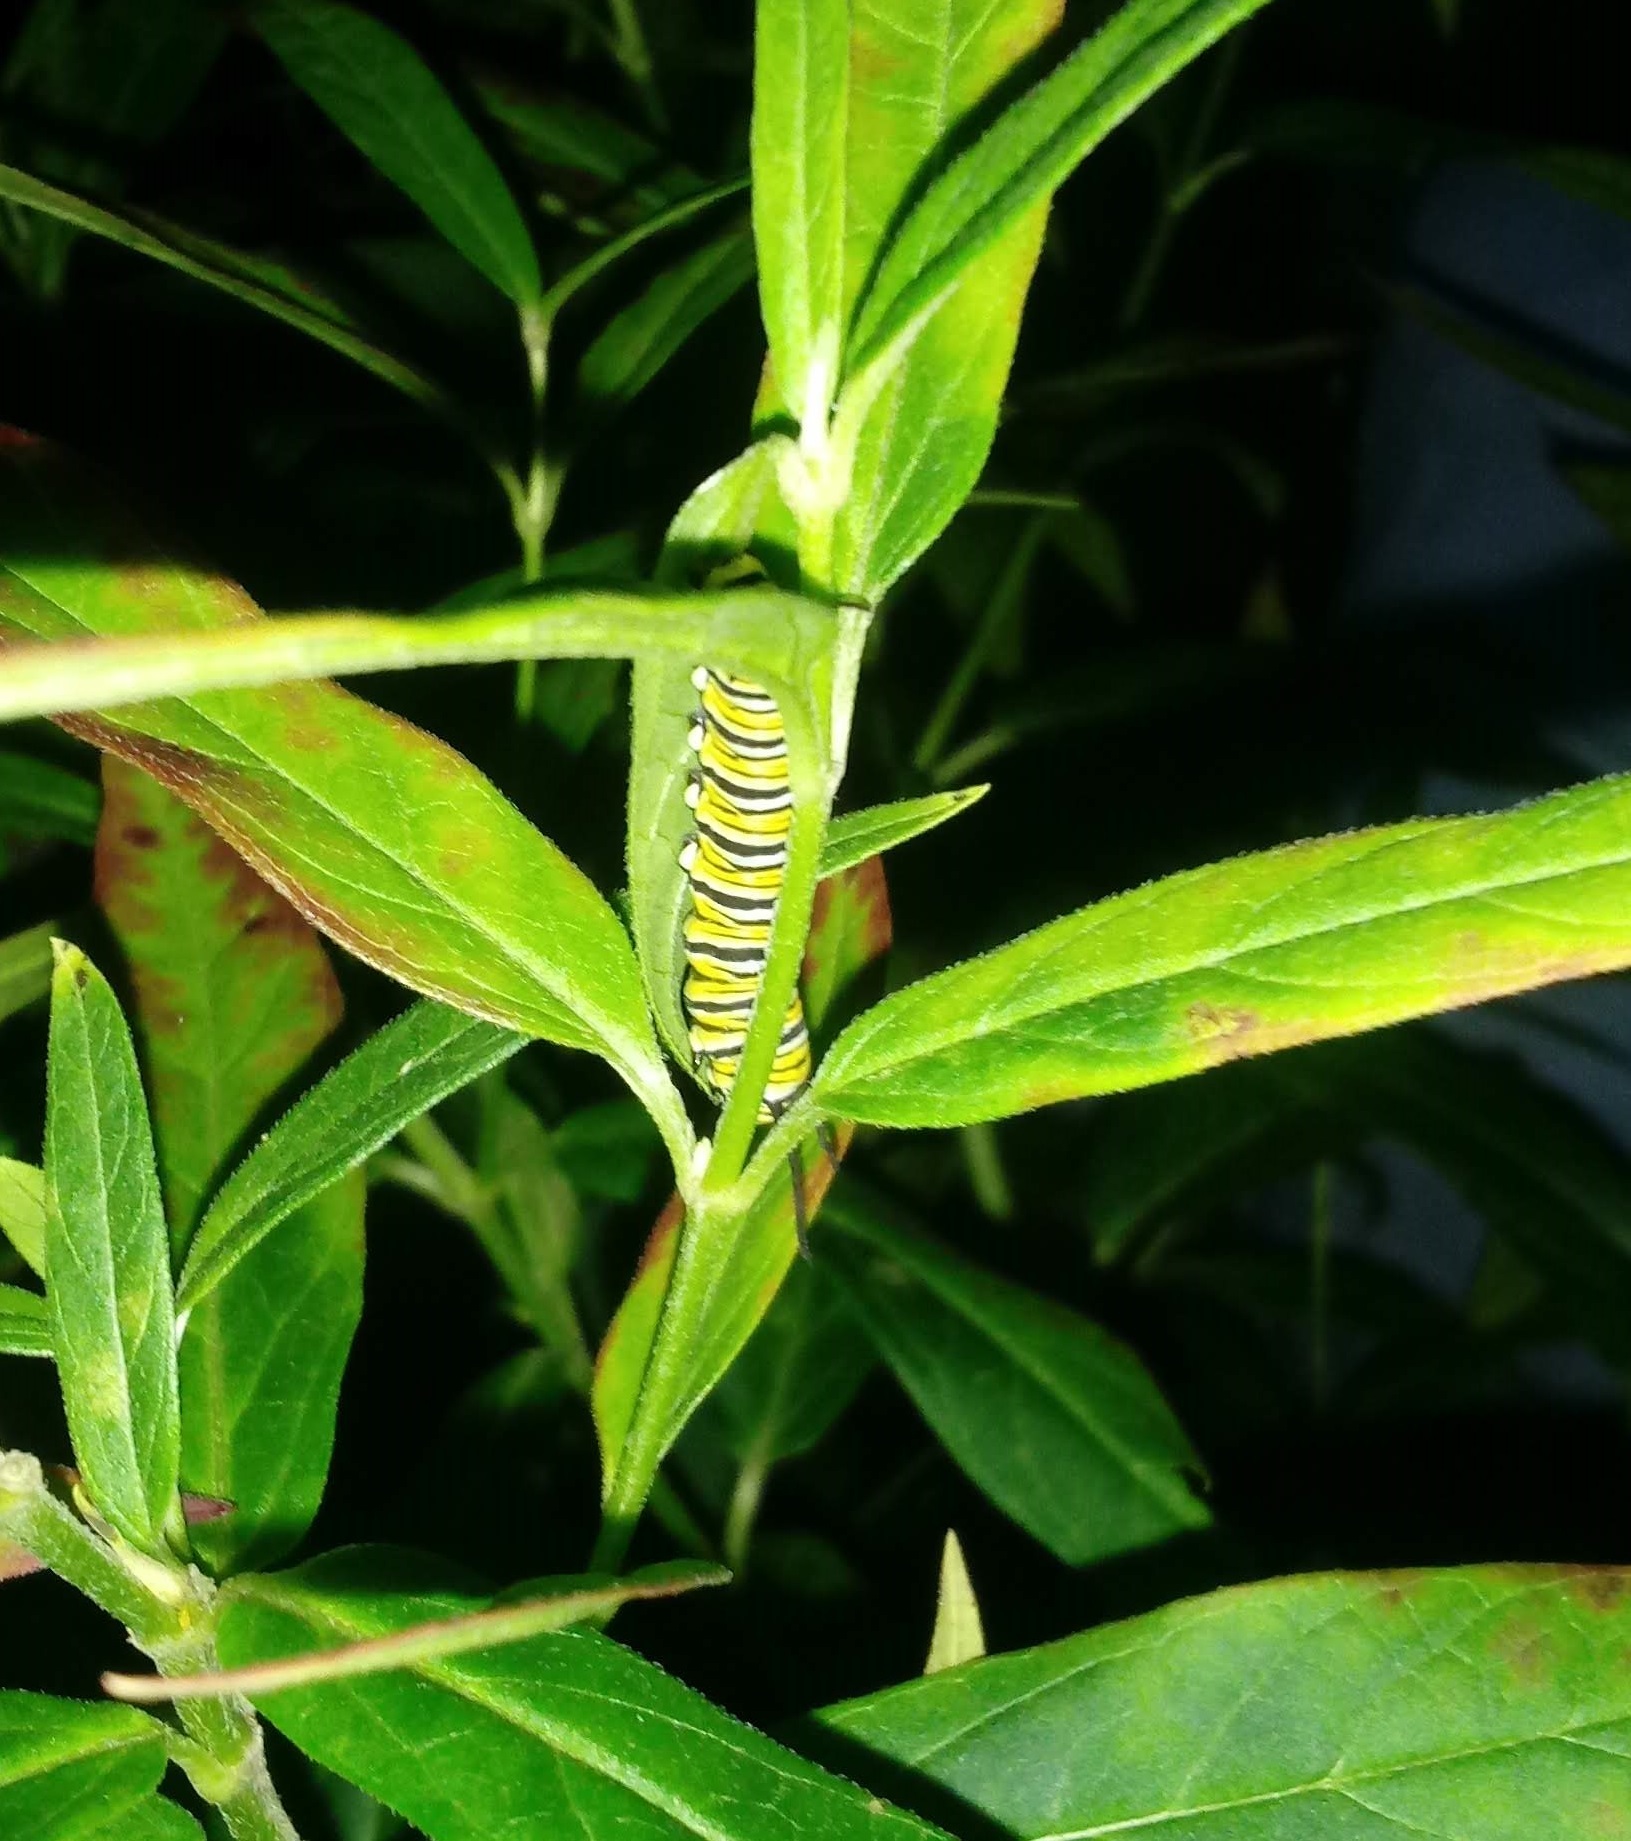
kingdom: Animalia
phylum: Arthropoda
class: Insecta
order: Lepidoptera
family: Nymphalidae
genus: Danaus
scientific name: Danaus plexippus
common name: Monarch
